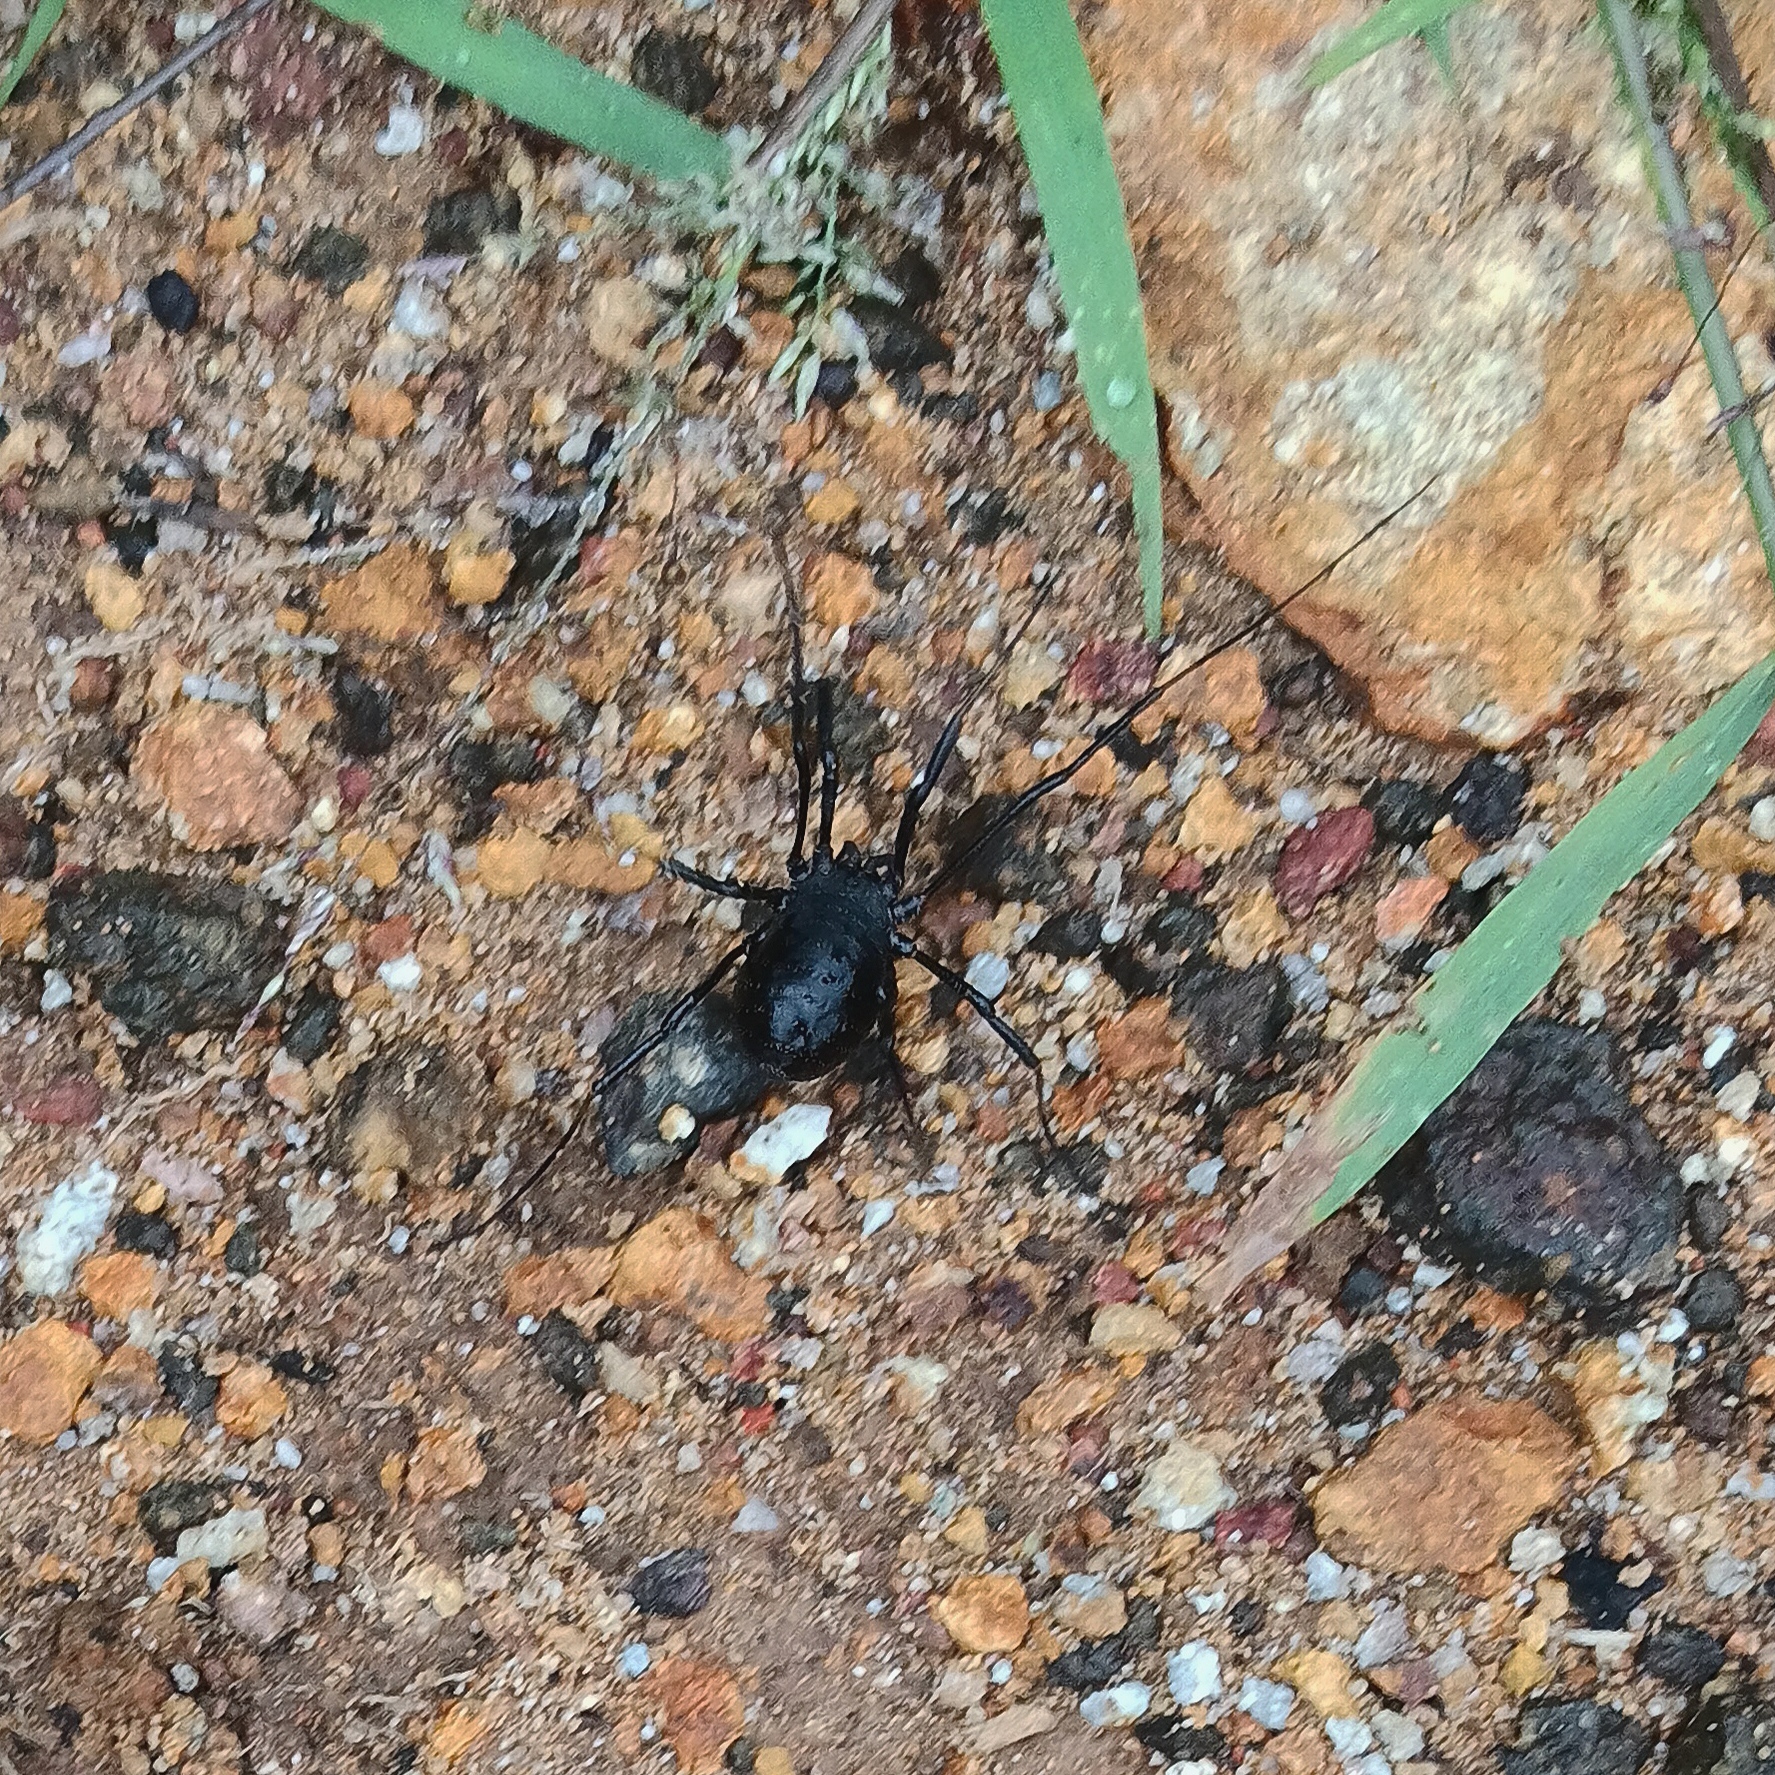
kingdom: Animalia
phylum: Arthropoda
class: Arachnida
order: Opiliones
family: Globipedidae
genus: Diguetinus
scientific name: Diguetinus raptator
